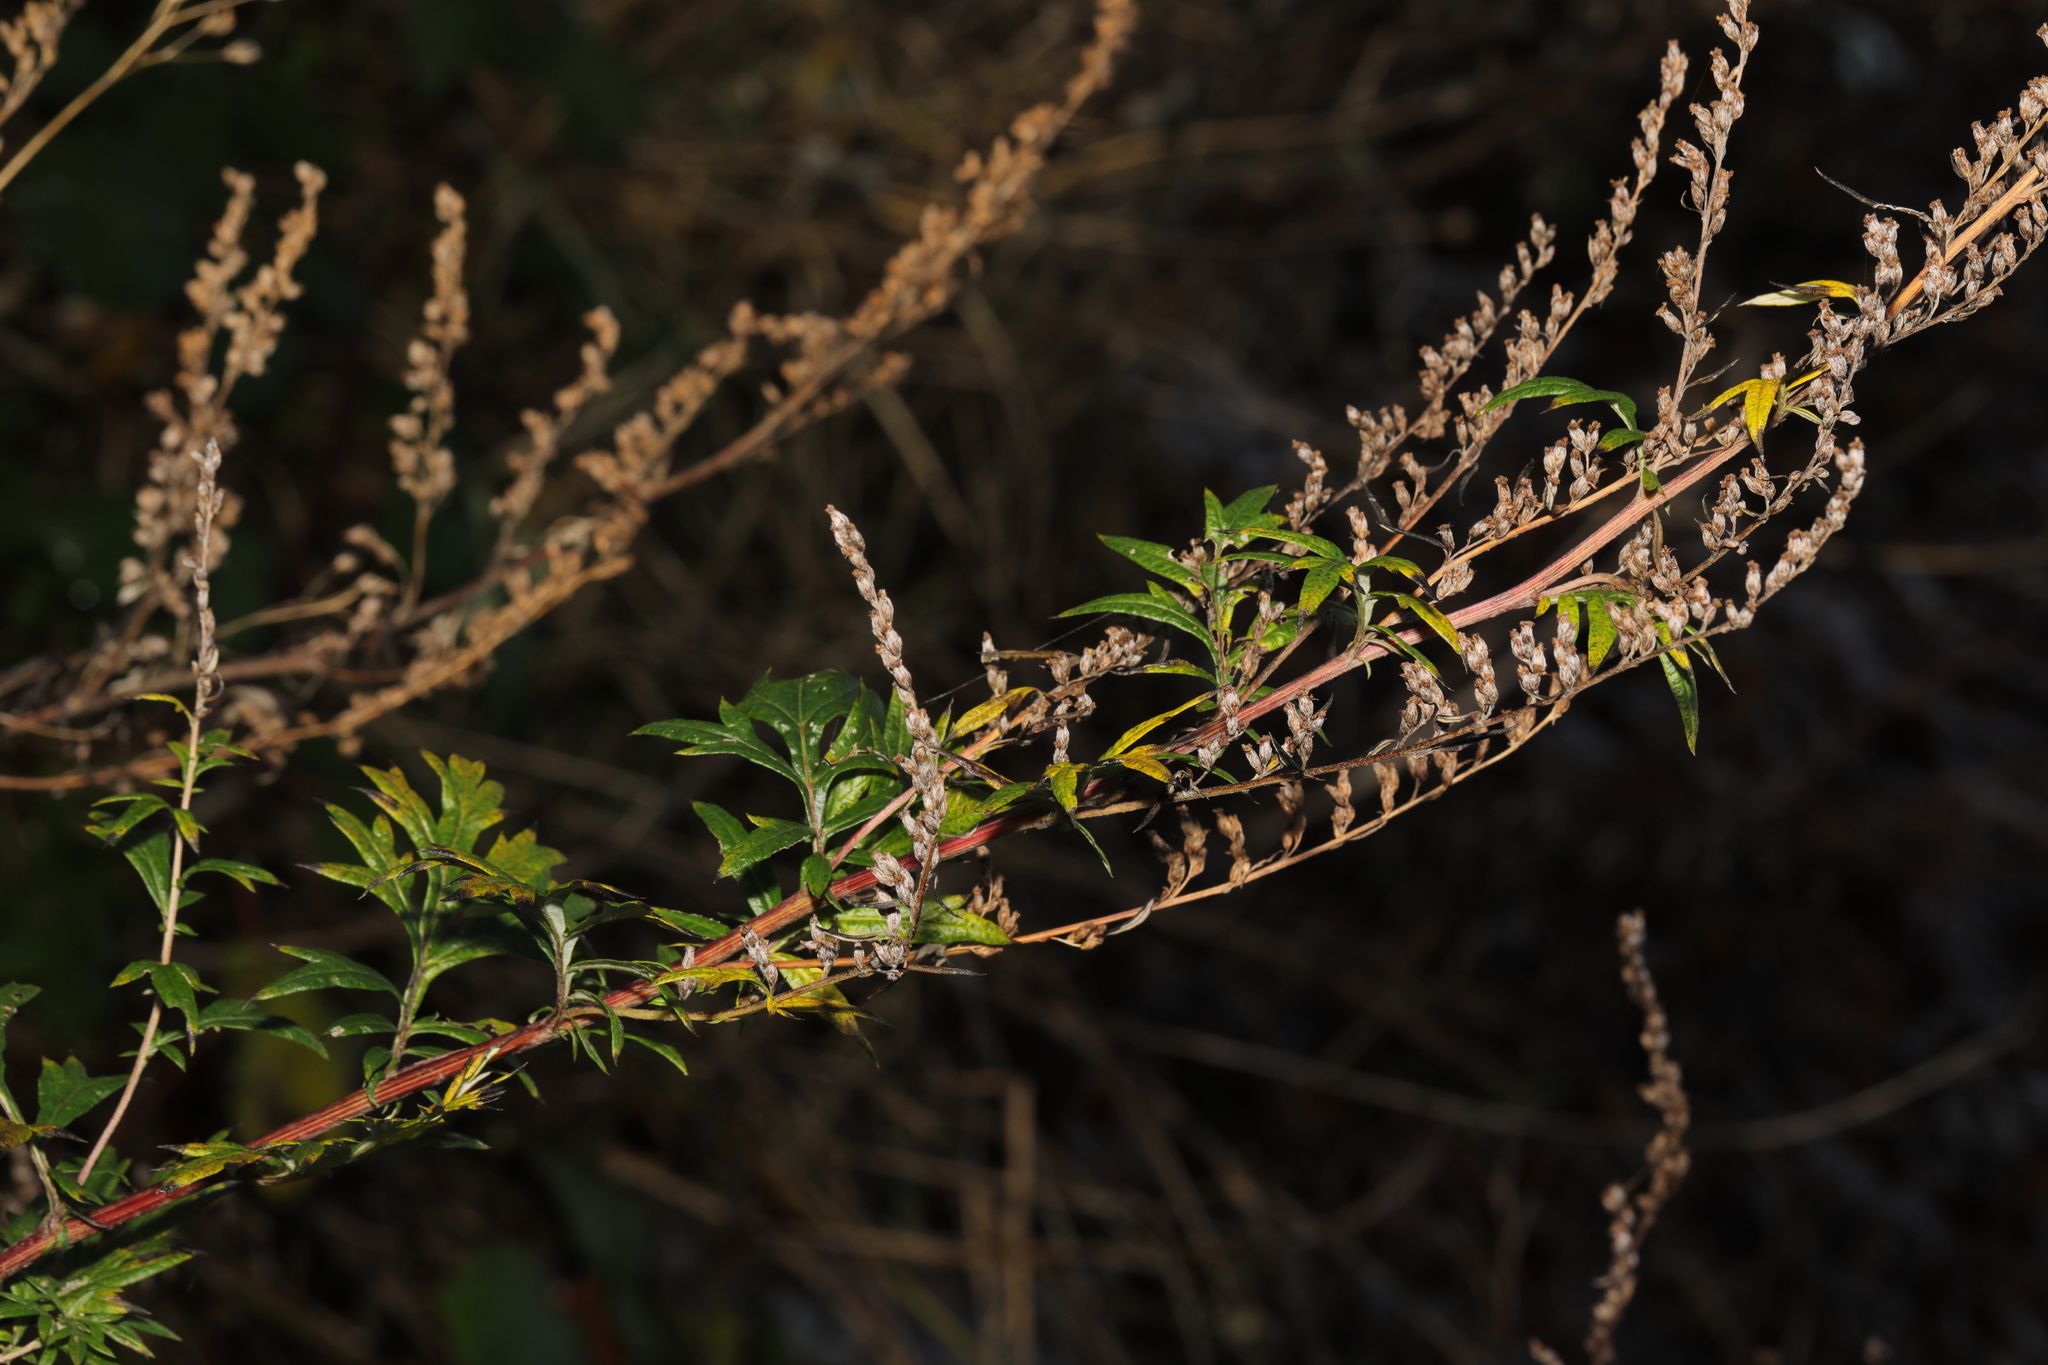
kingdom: Plantae
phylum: Tracheophyta
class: Magnoliopsida
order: Asterales
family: Asteraceae
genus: Artemisia
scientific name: Artemisia vulgaris
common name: Mugwort
